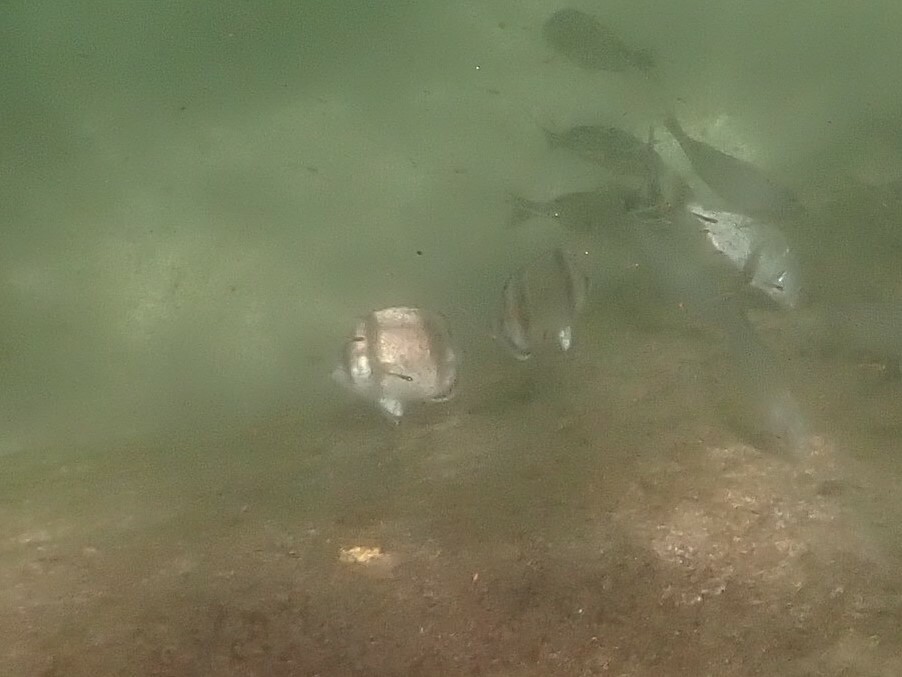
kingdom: Animalia
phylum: Chordata
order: Perciformes
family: Chaetodontidae
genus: Chaetodon
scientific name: Chaetodon humeralis
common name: Threebanded butterflyfish
